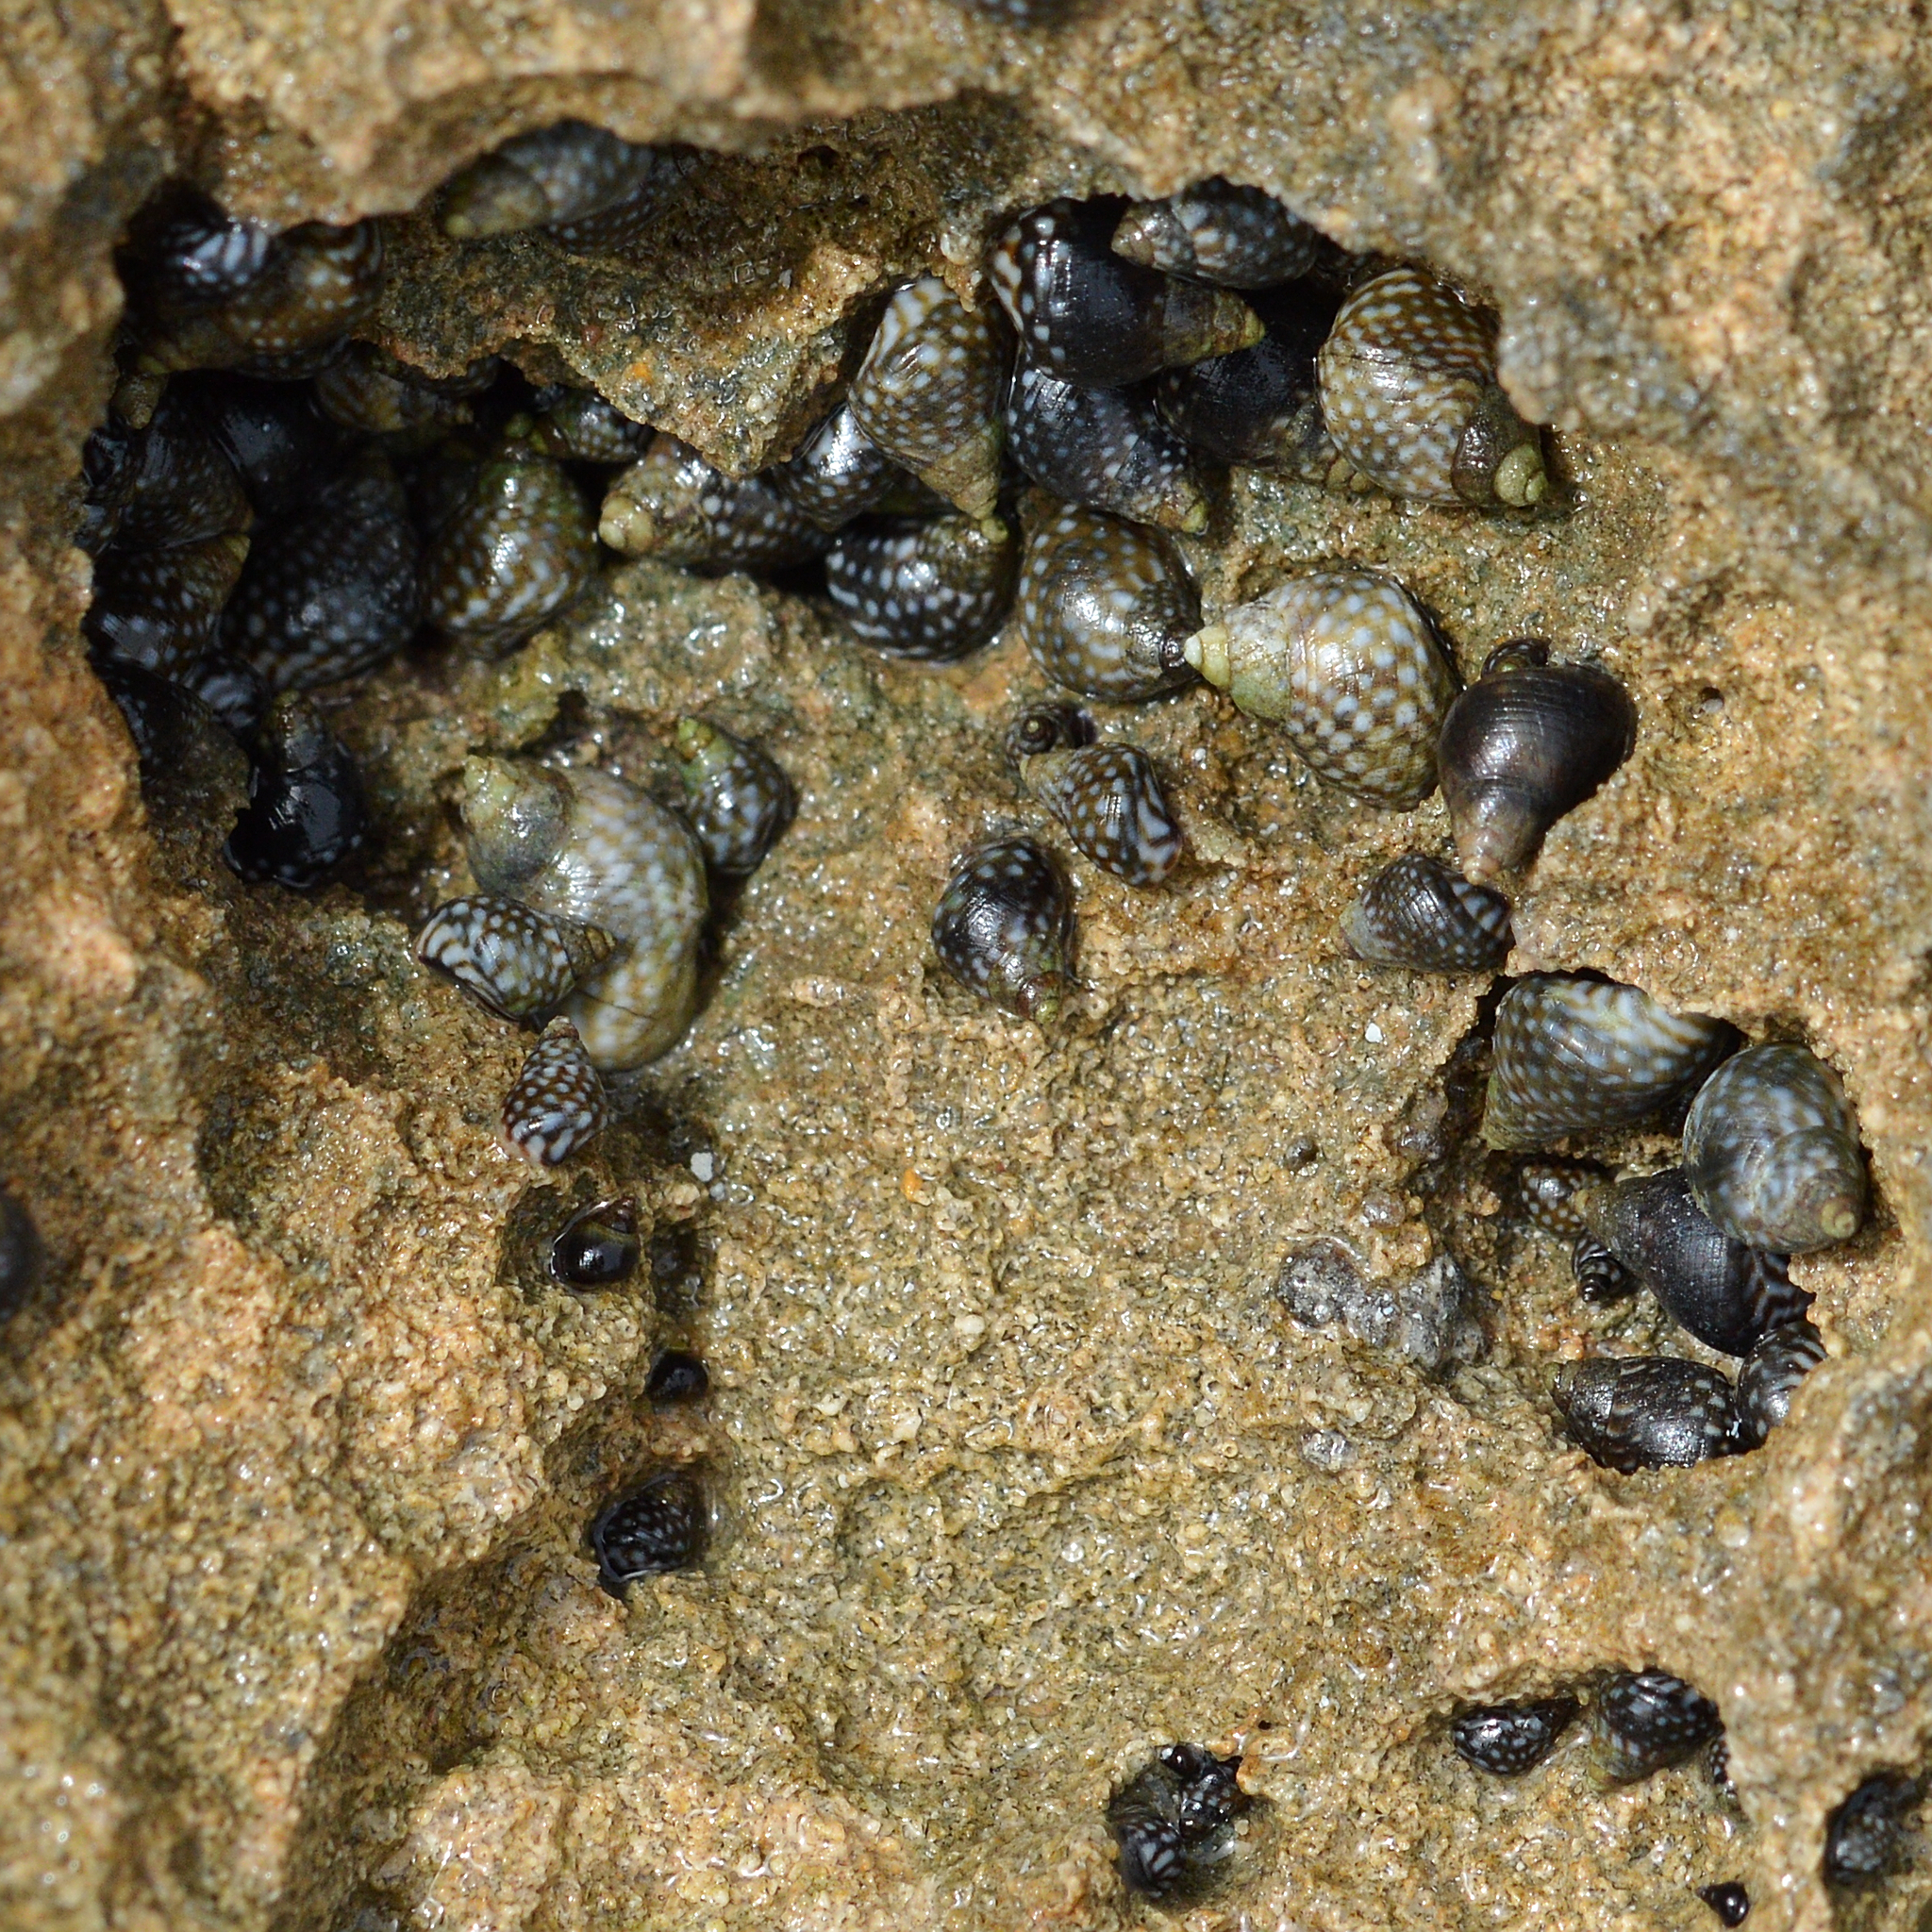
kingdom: Animalia
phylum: Mollusca
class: Gastropoda
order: Littorinimorpha
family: Littorinidae
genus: Echinolittorina
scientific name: Echinolittorina punctata
